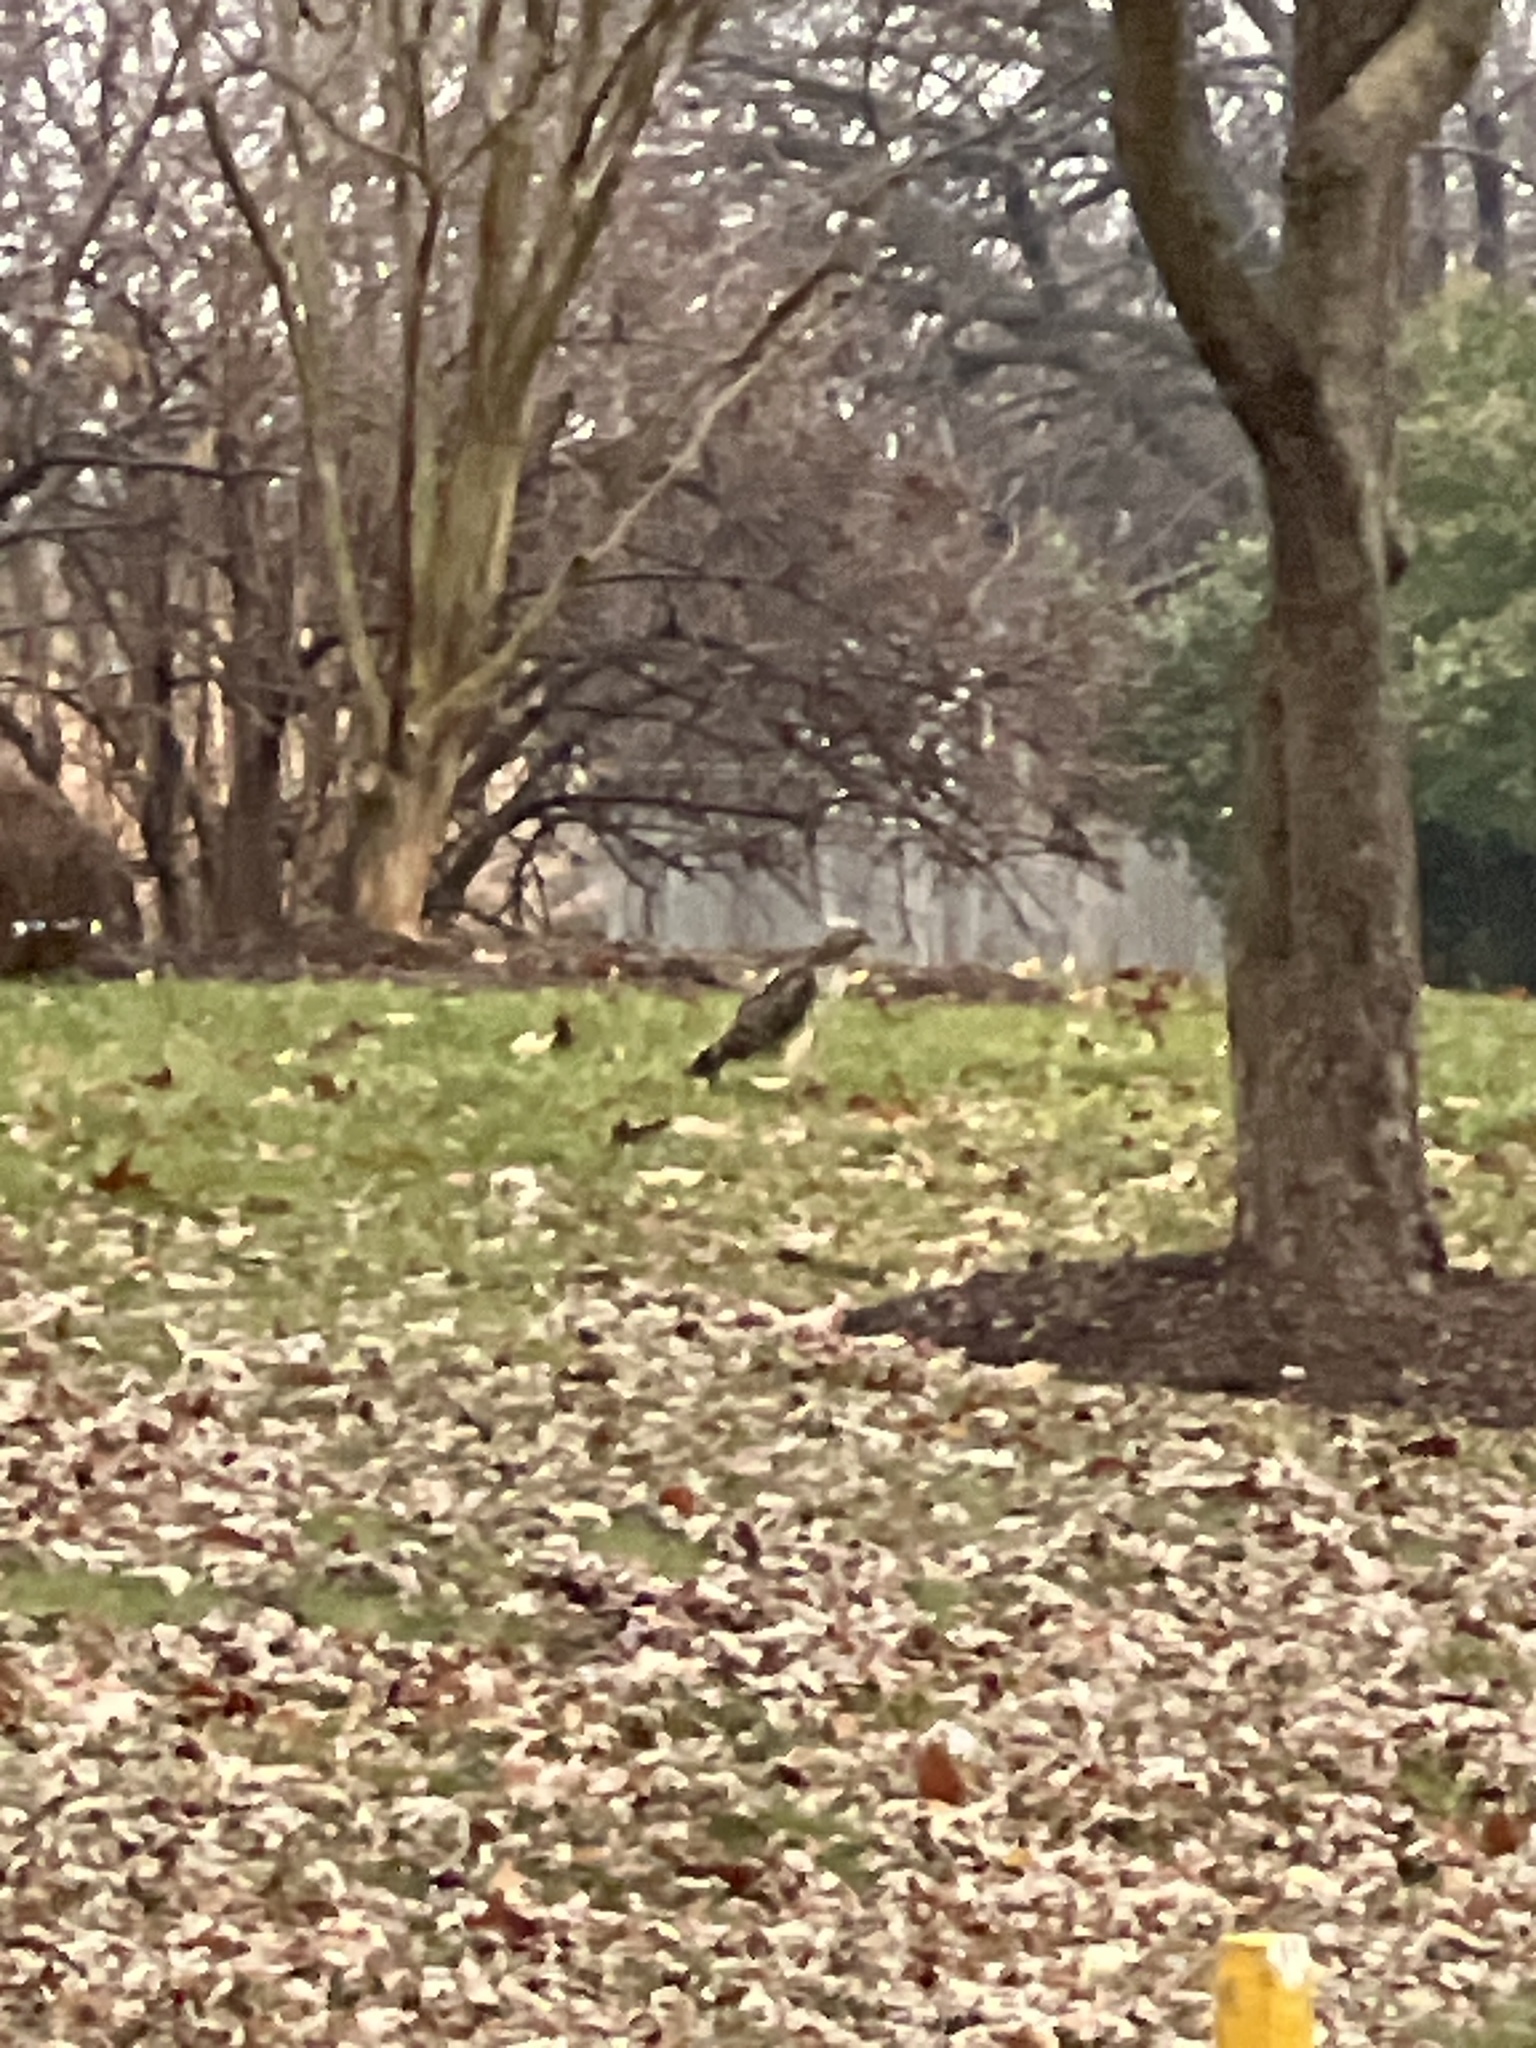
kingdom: Animalia
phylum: Chordata
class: Aves
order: Accipitriformes
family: Accipitridae
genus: Buteo
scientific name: Buteo jamaicensis
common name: Red-tailed hawk
